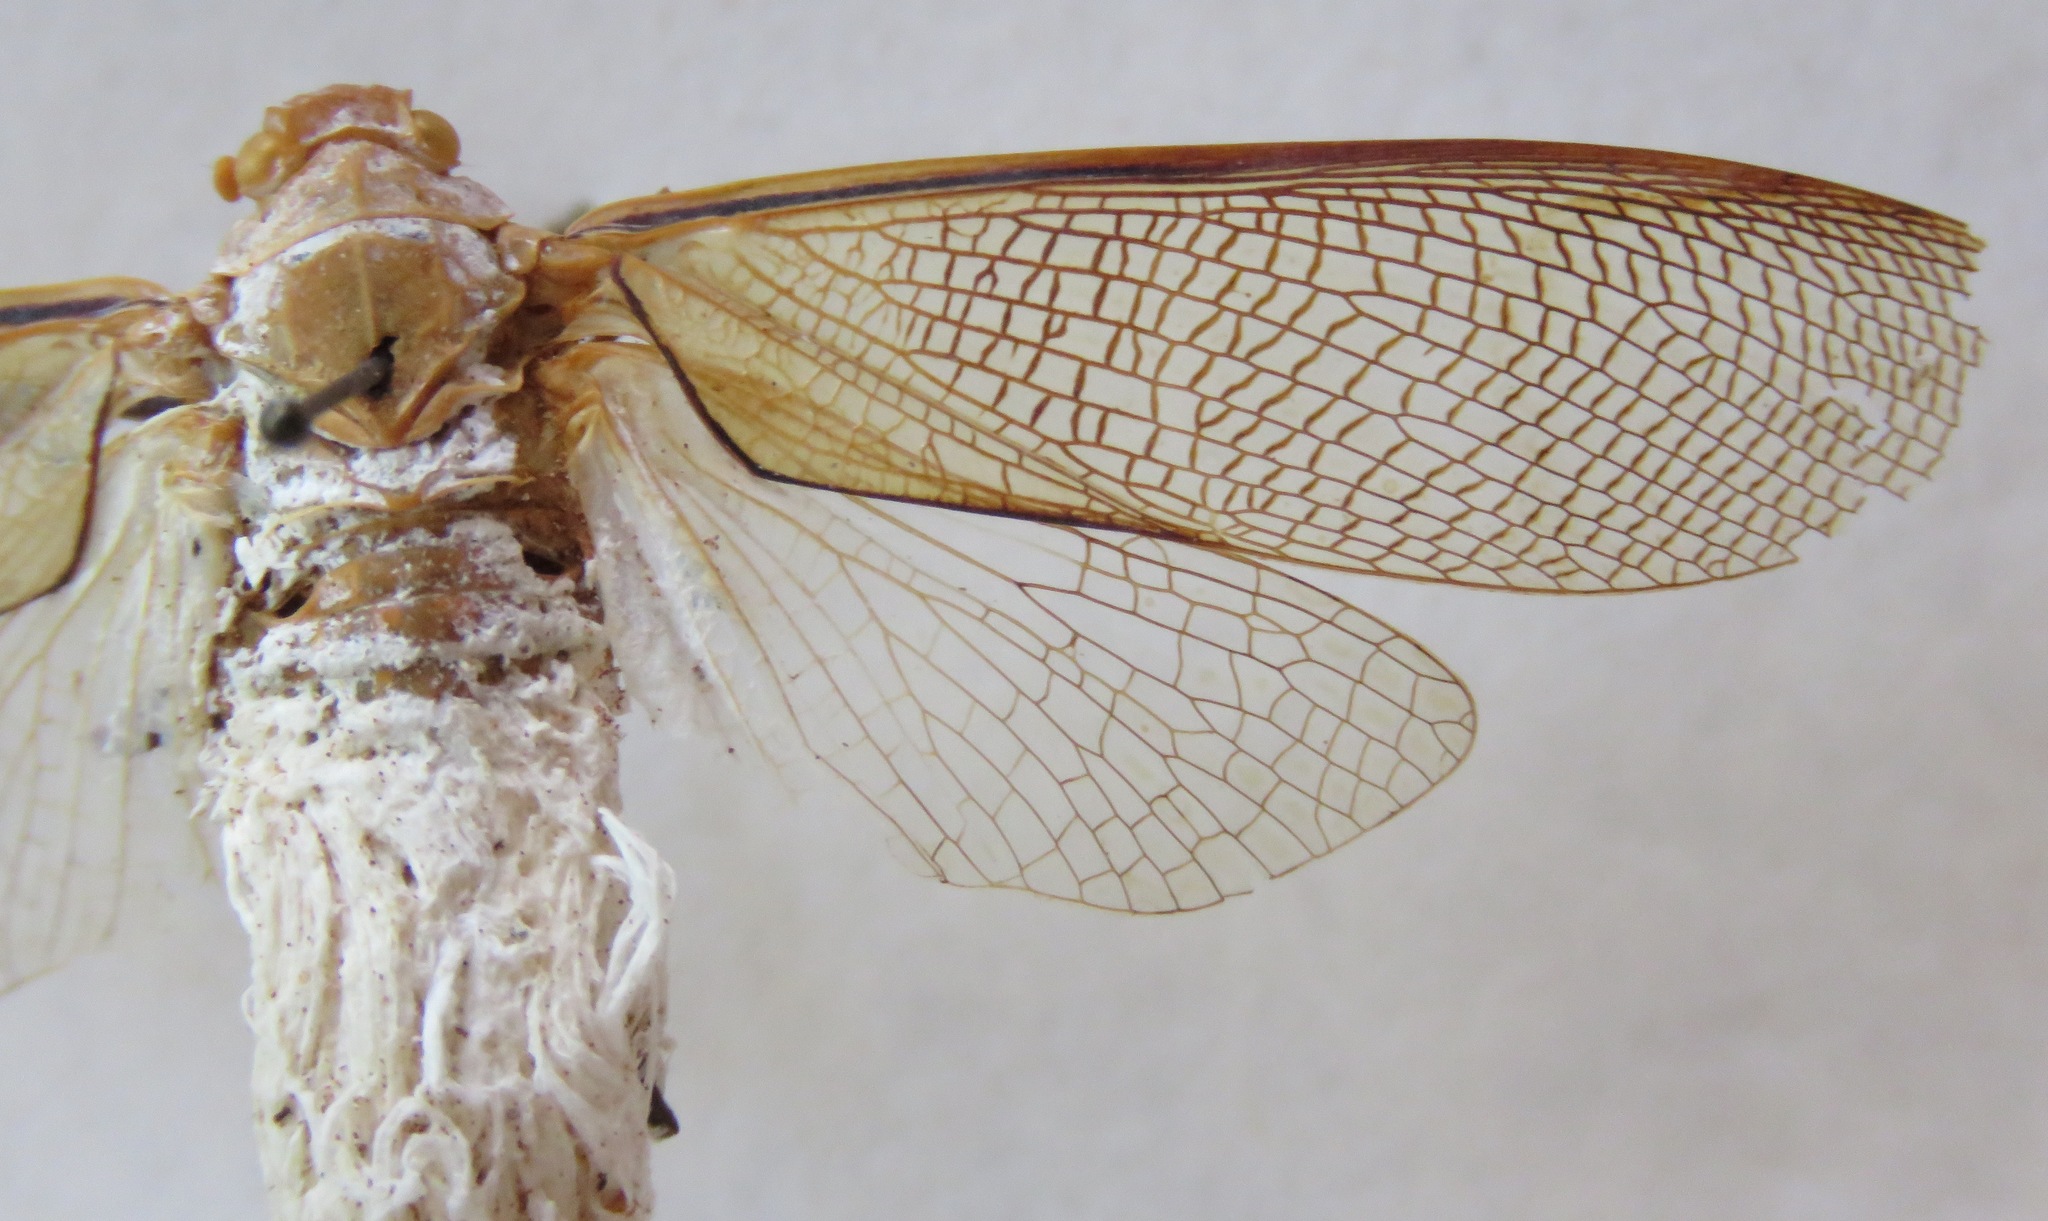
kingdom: Animalia
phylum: Arthropoda
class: Insecta
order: Hemiptera
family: Fulgoridae
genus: Pterodictya
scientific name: Pterodictya reticularis
